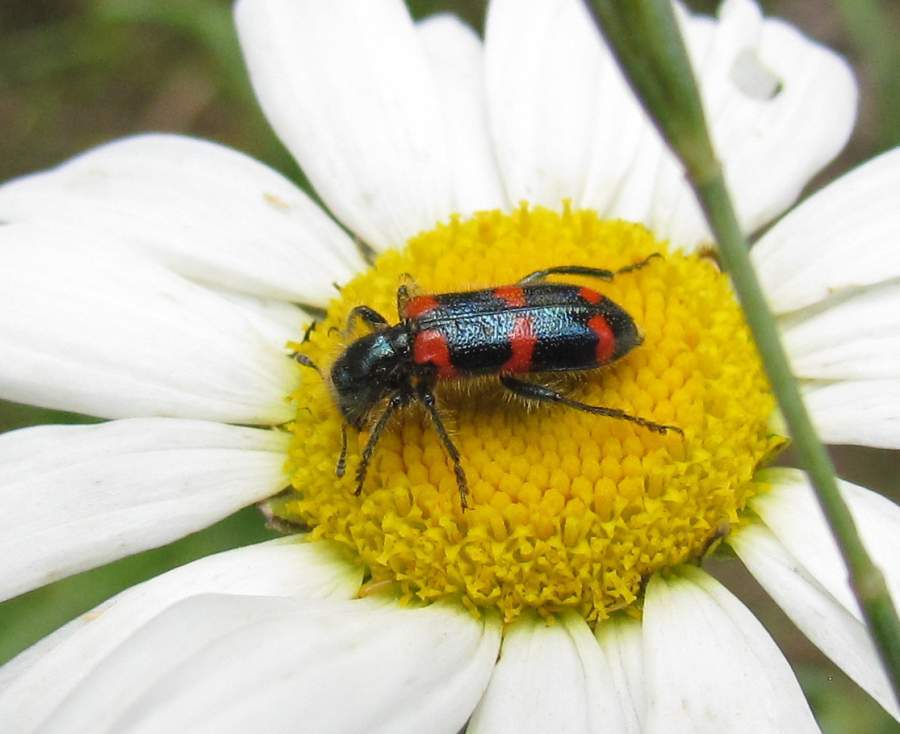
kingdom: Animalia
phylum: Arthropoda
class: Insecta
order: Coleoptera
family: Cleridae
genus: Trichodes
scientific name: Trichodes nutalli
